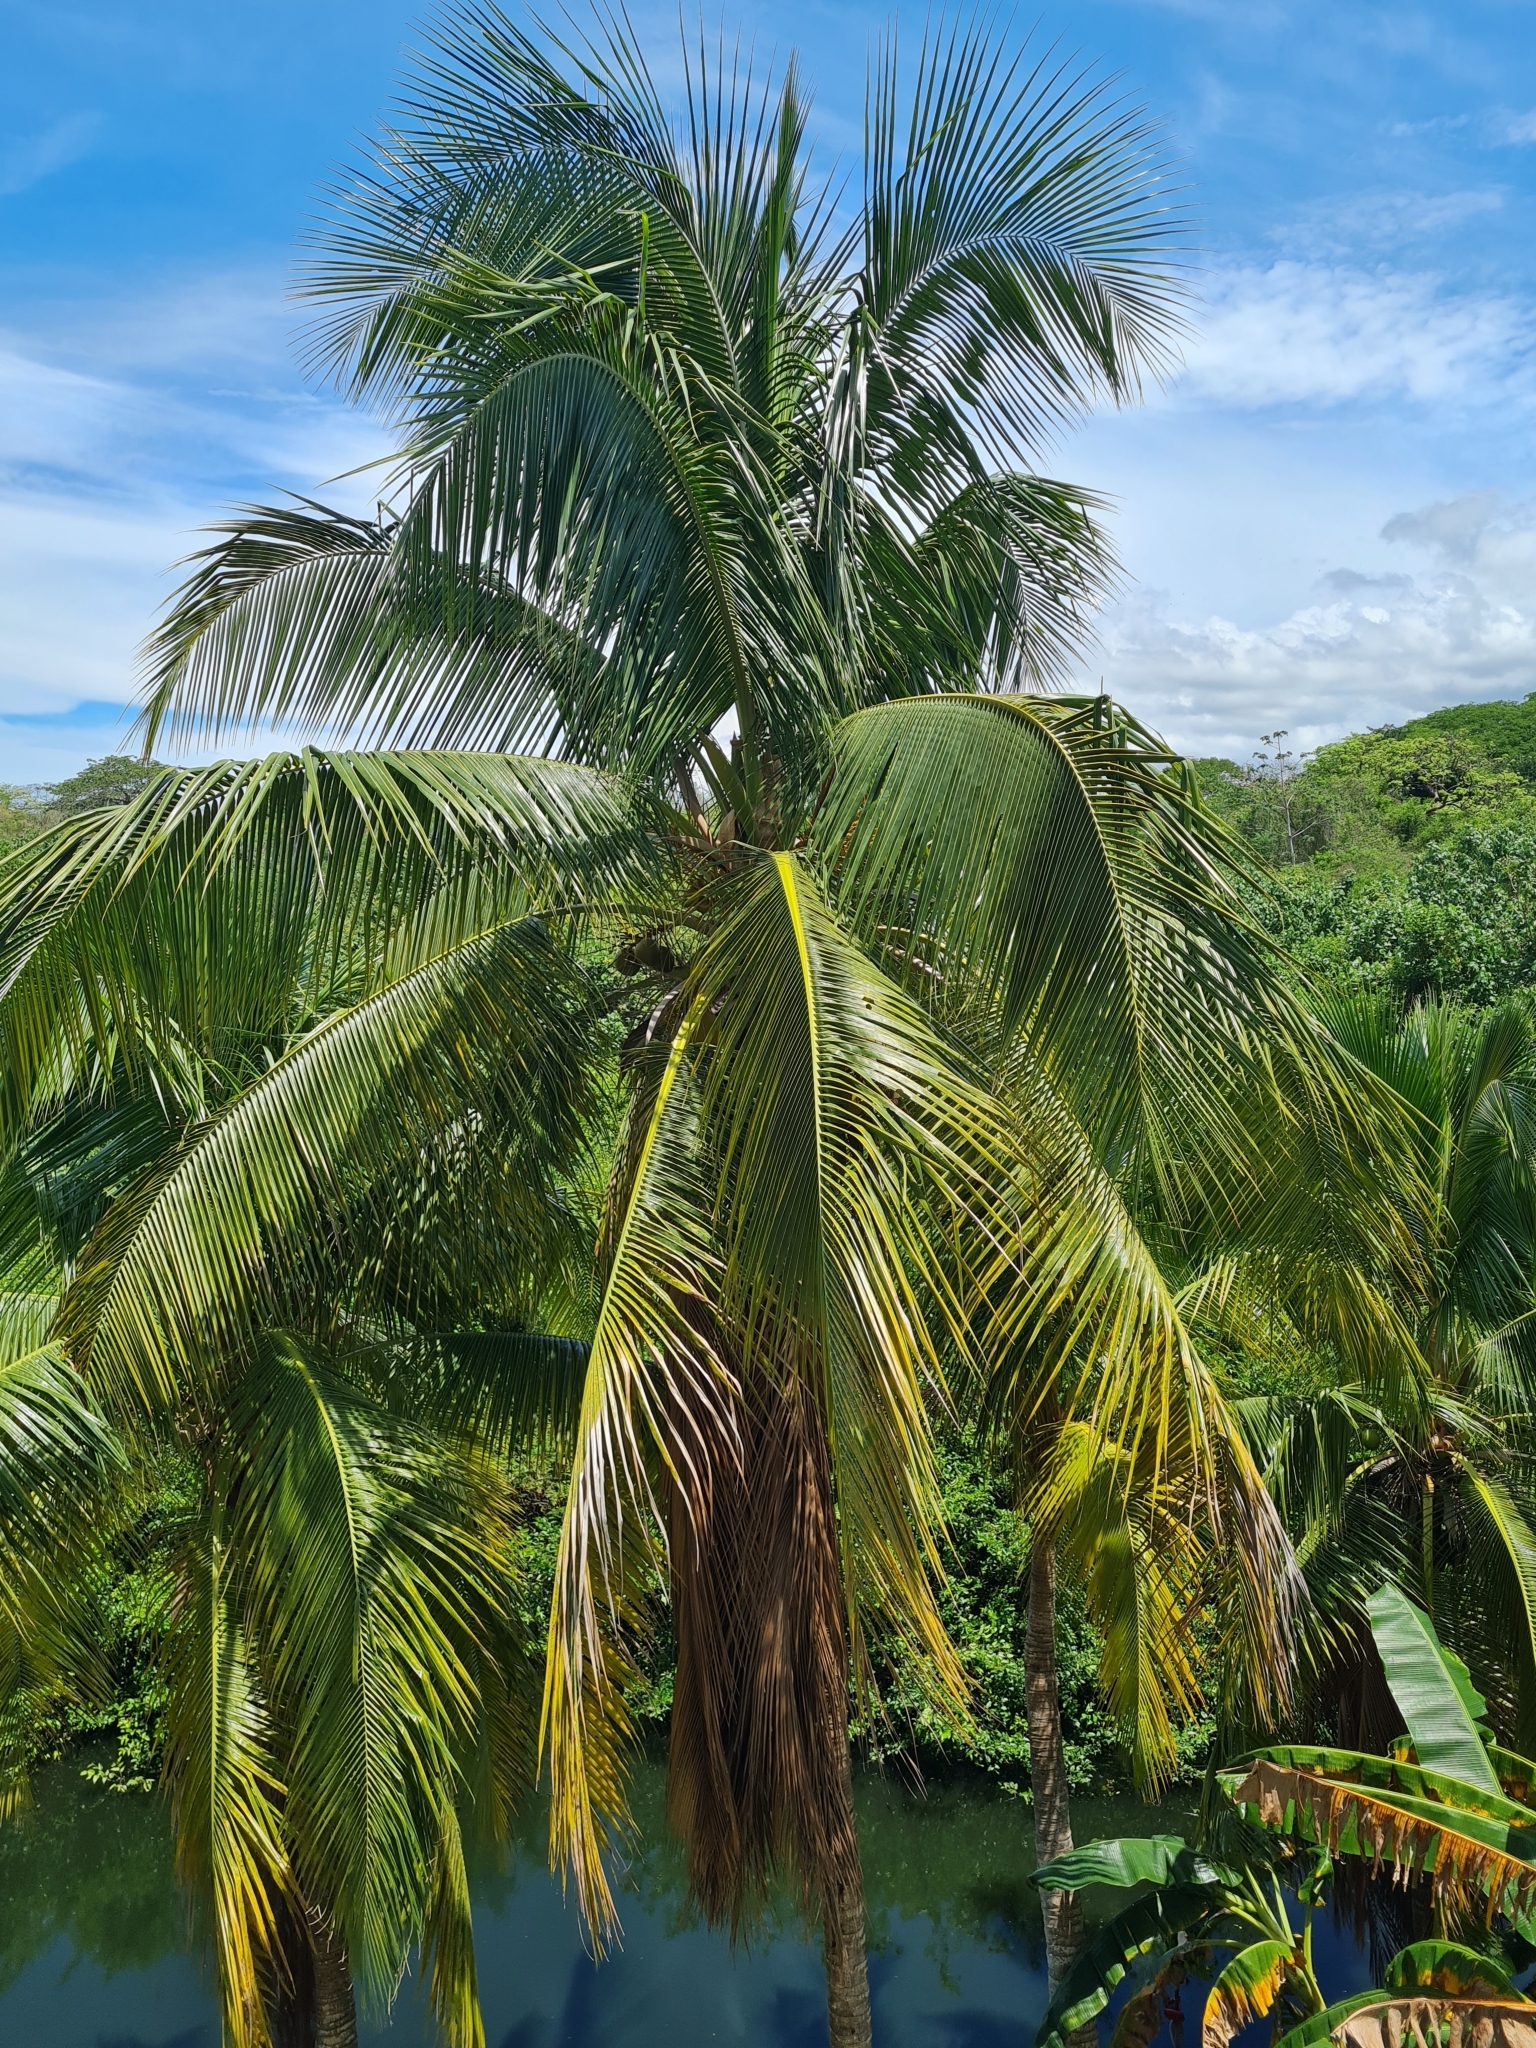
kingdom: Plantae
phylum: Tracheophyta
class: Liliopsida
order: Arecales
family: Arecaceae
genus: Cocos
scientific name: Cocos nucifera
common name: Coconut palm
